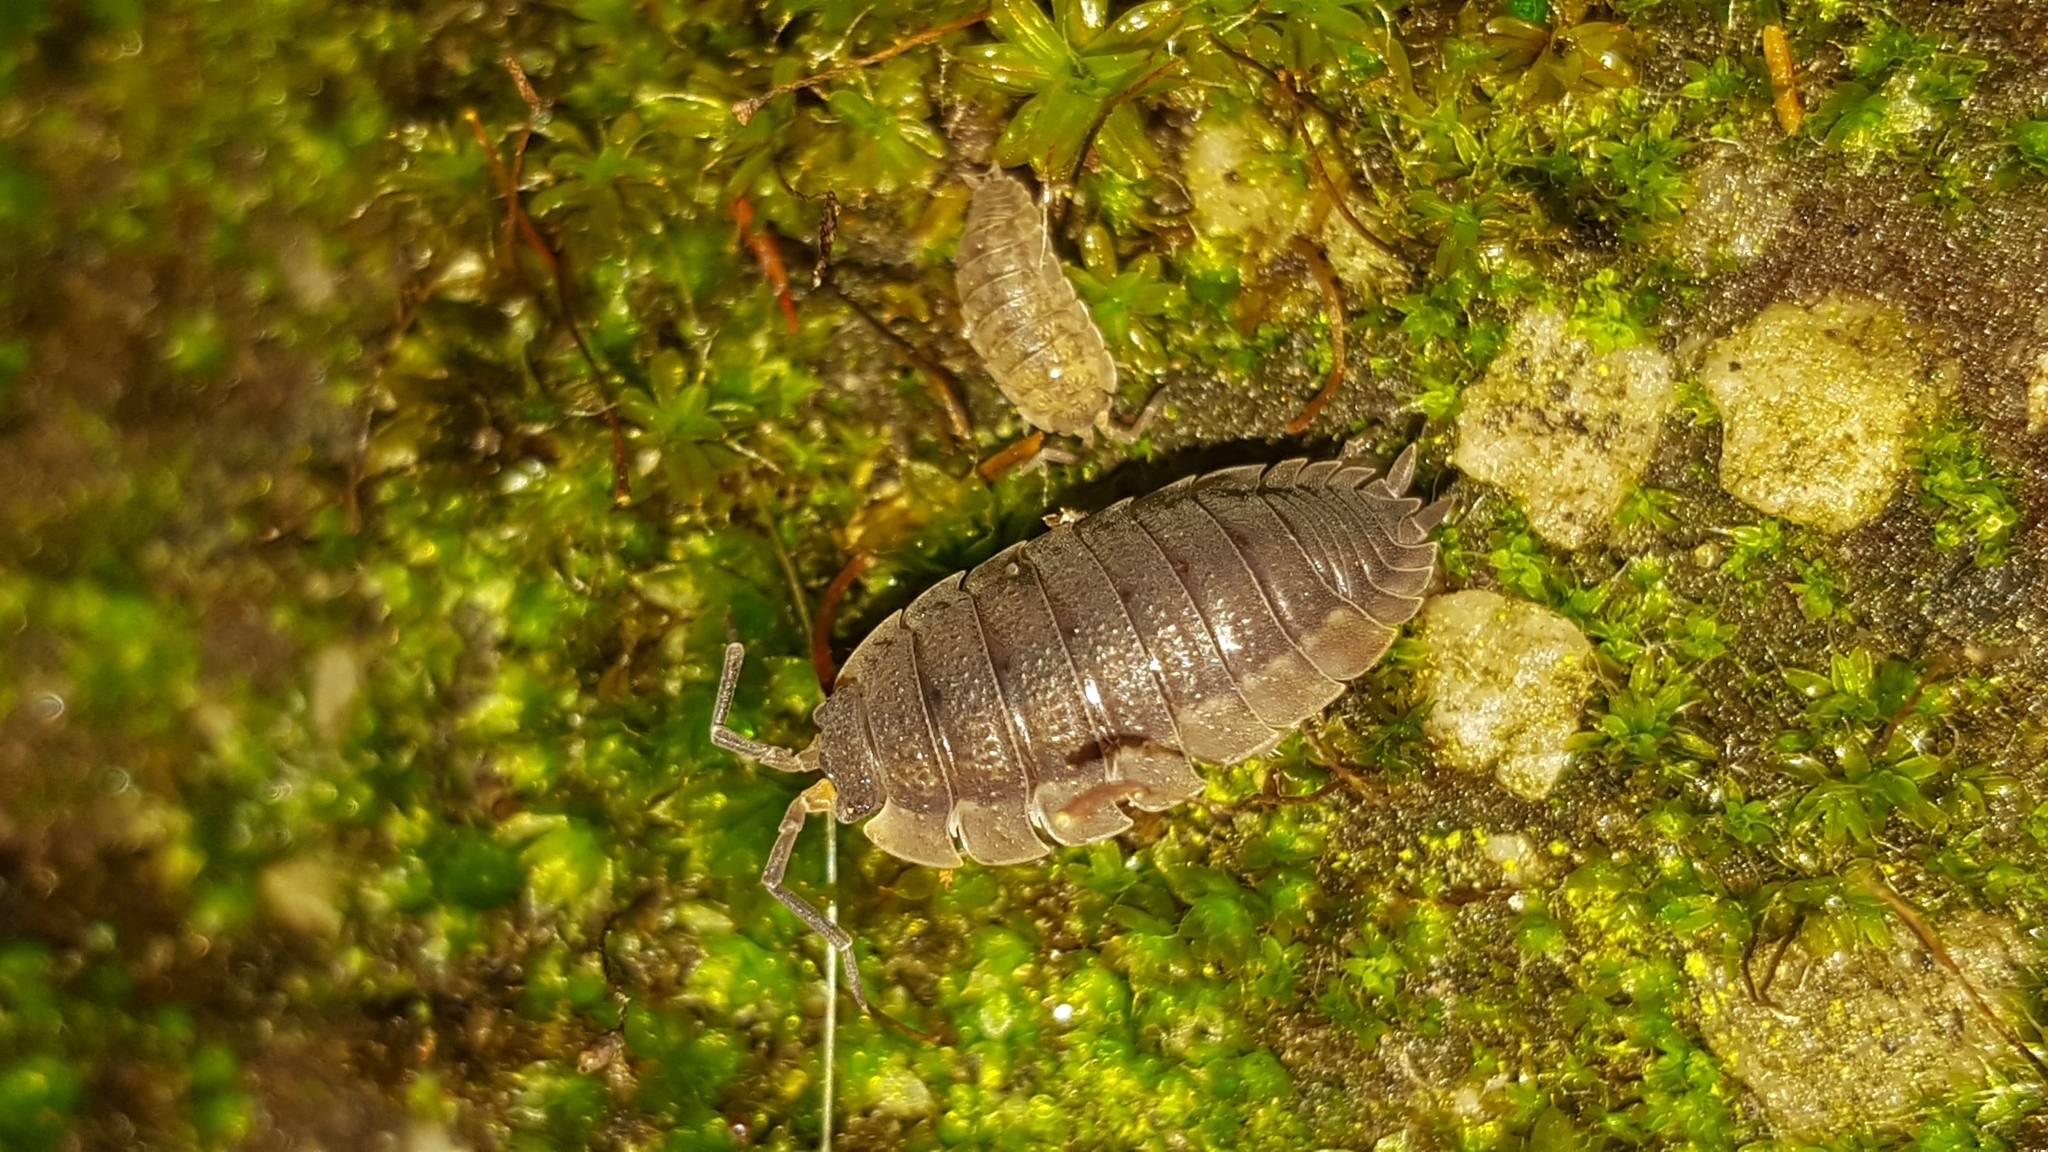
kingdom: Animalia
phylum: Arthropoda
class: Malacostraca
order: Isopoda
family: Porcellionidae
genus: Porcellio
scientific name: Porcellio scaber
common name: Common rough woodlouse
